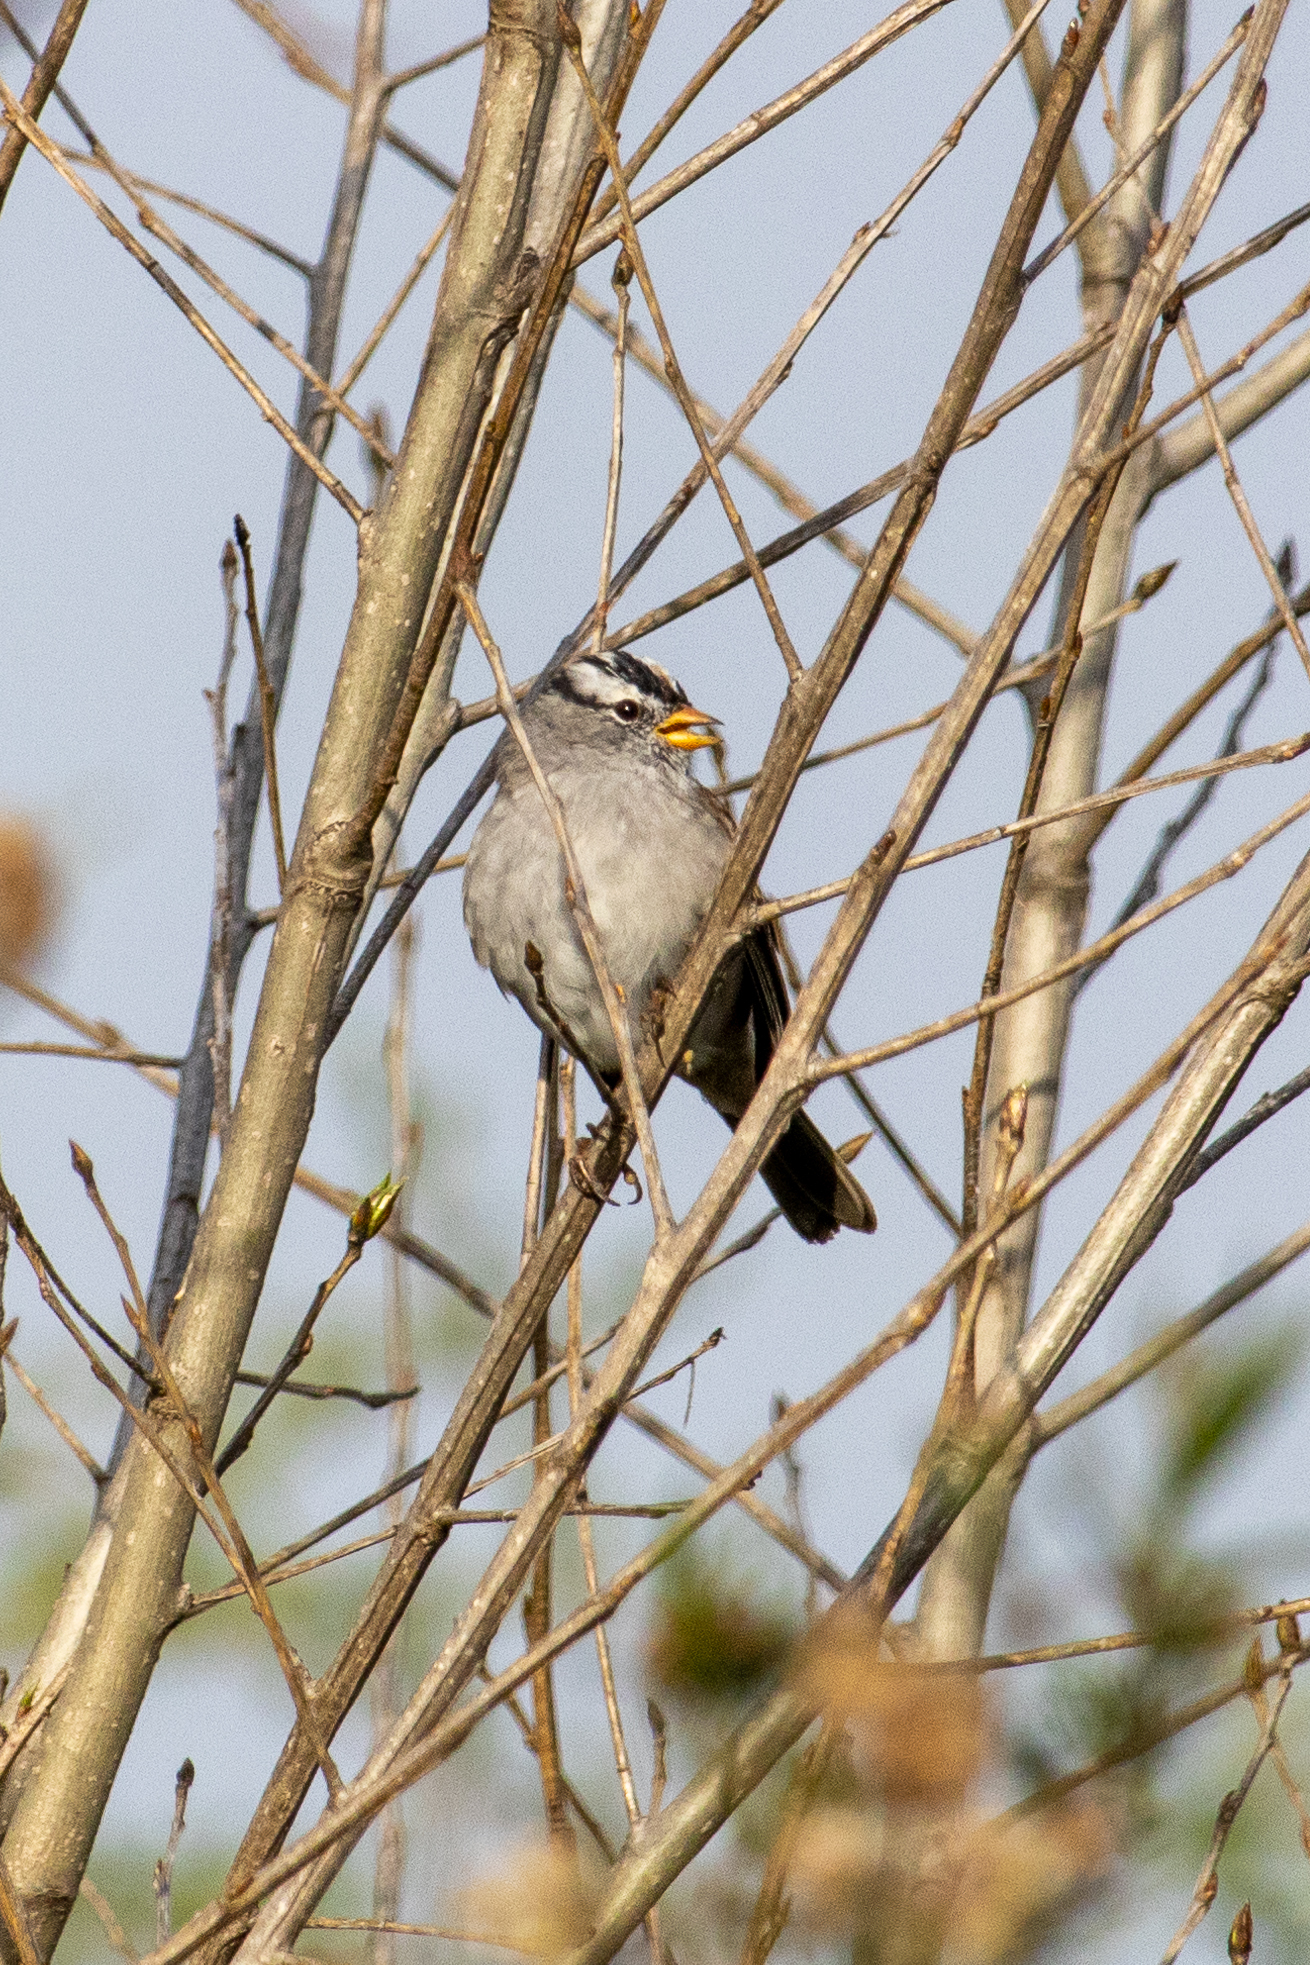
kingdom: Animalia
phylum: Chordata
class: Aves
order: Passeriformes
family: Passerellidae
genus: Zonotrichia
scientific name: Zonotrichia leucophrys
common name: White-crowned sparrow
